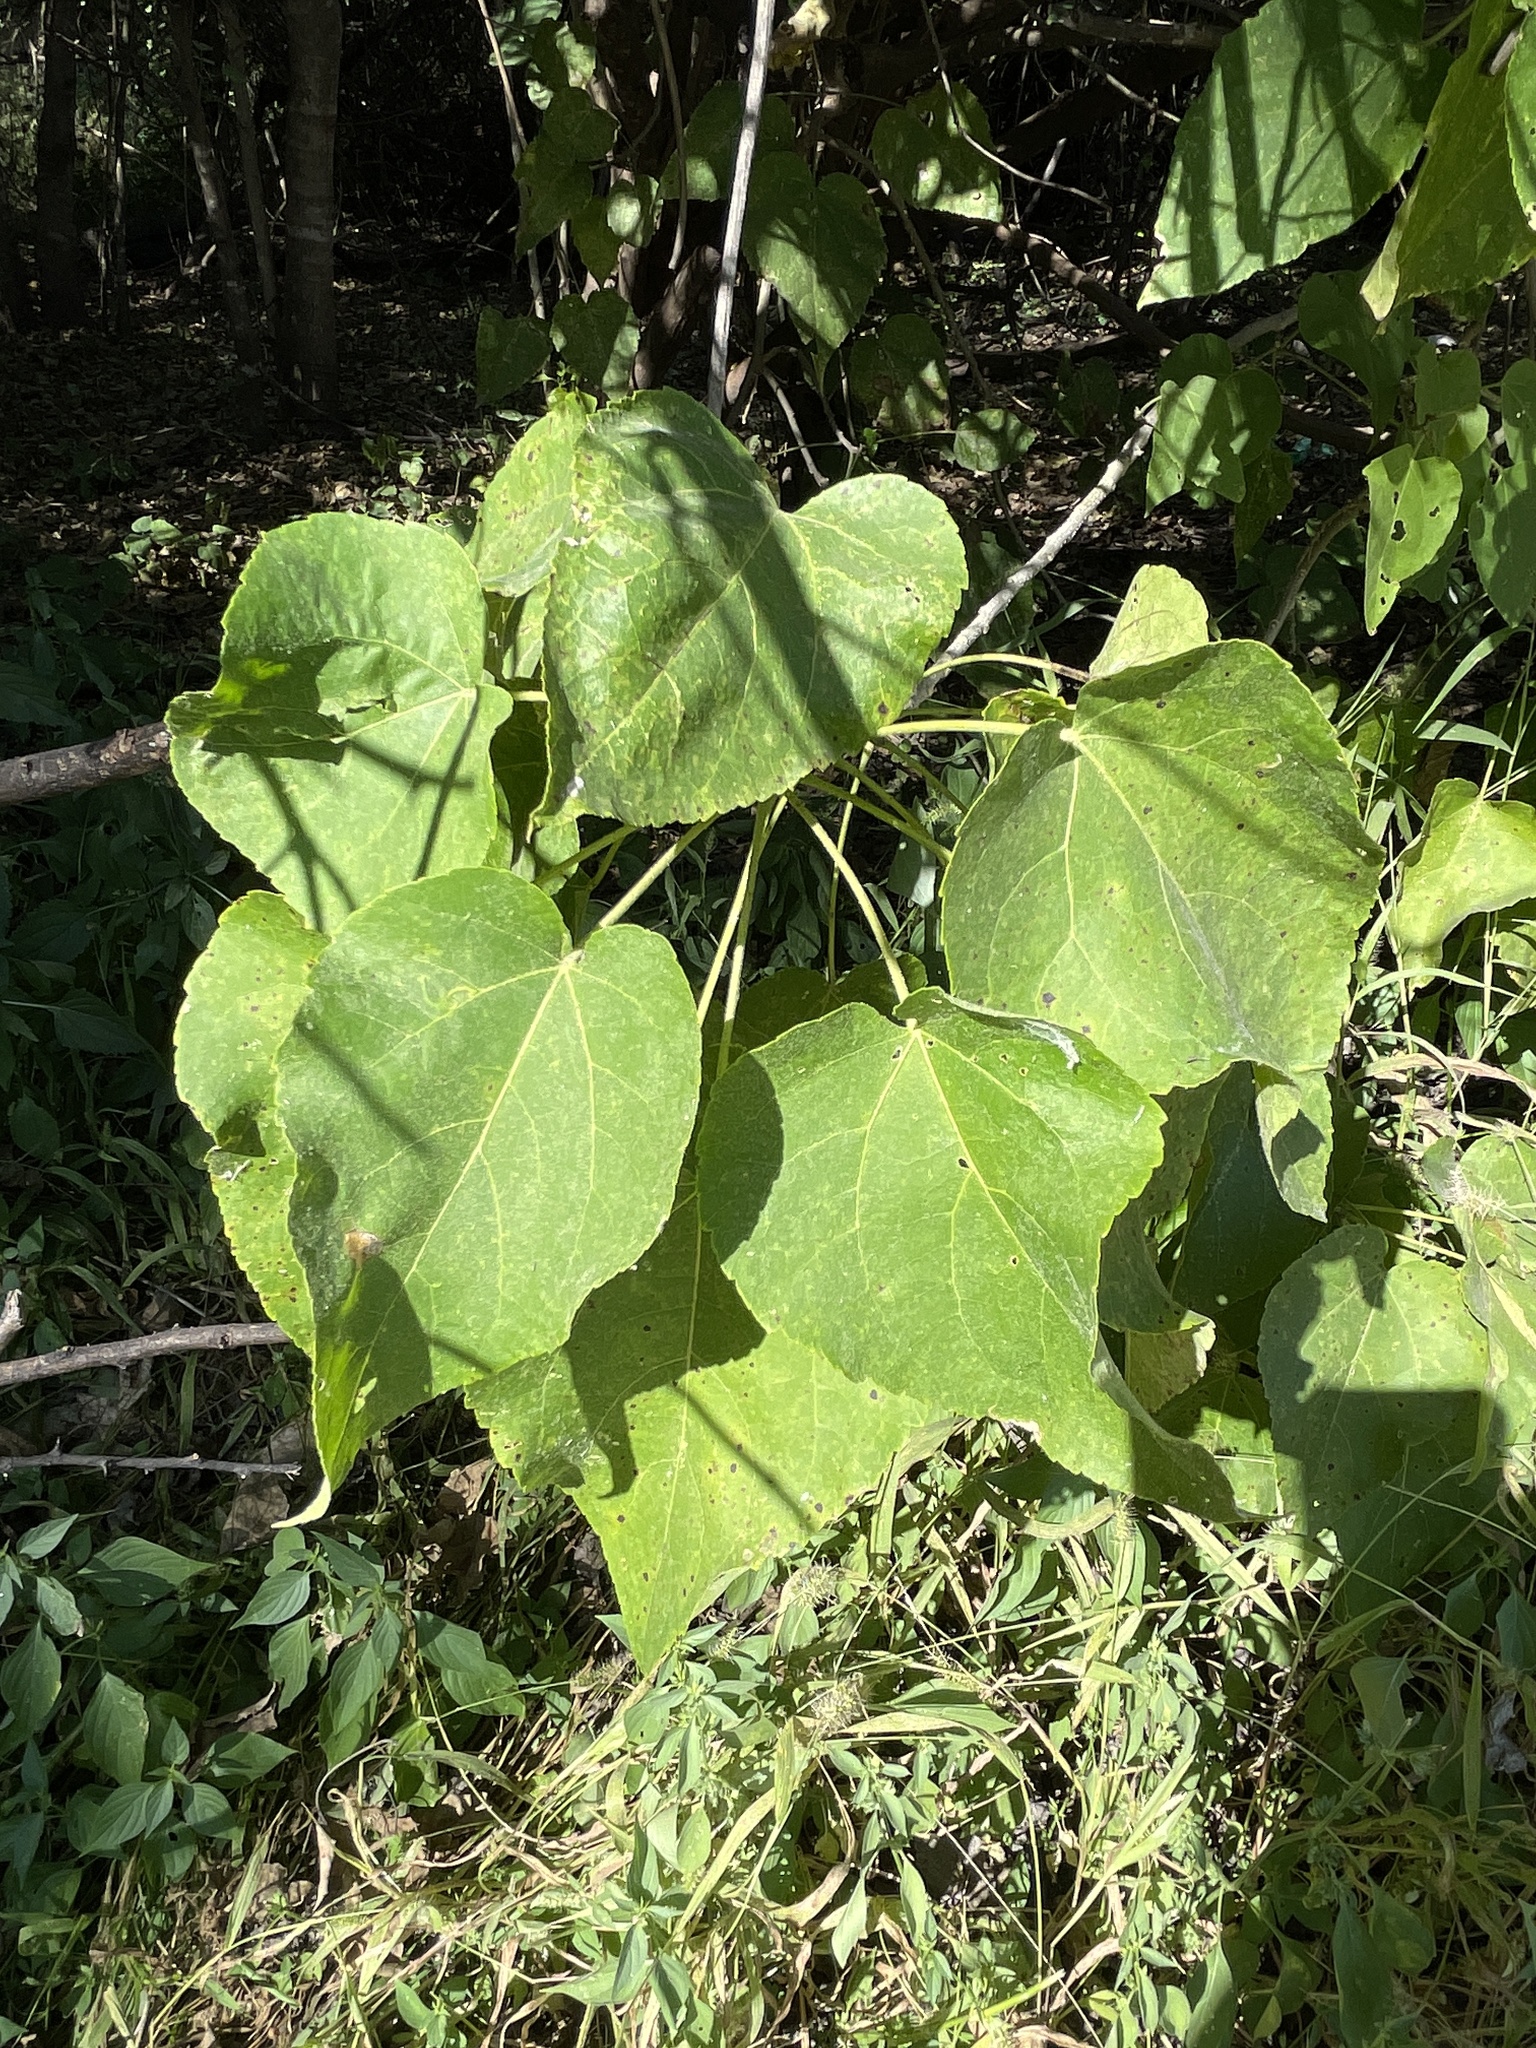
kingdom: Plantae
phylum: Tracheophyta
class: Magnoliopsida
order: Malpighiales
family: Euphorbiaceae
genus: Croton
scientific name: Croton megalobotrys
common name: Large fever berry
